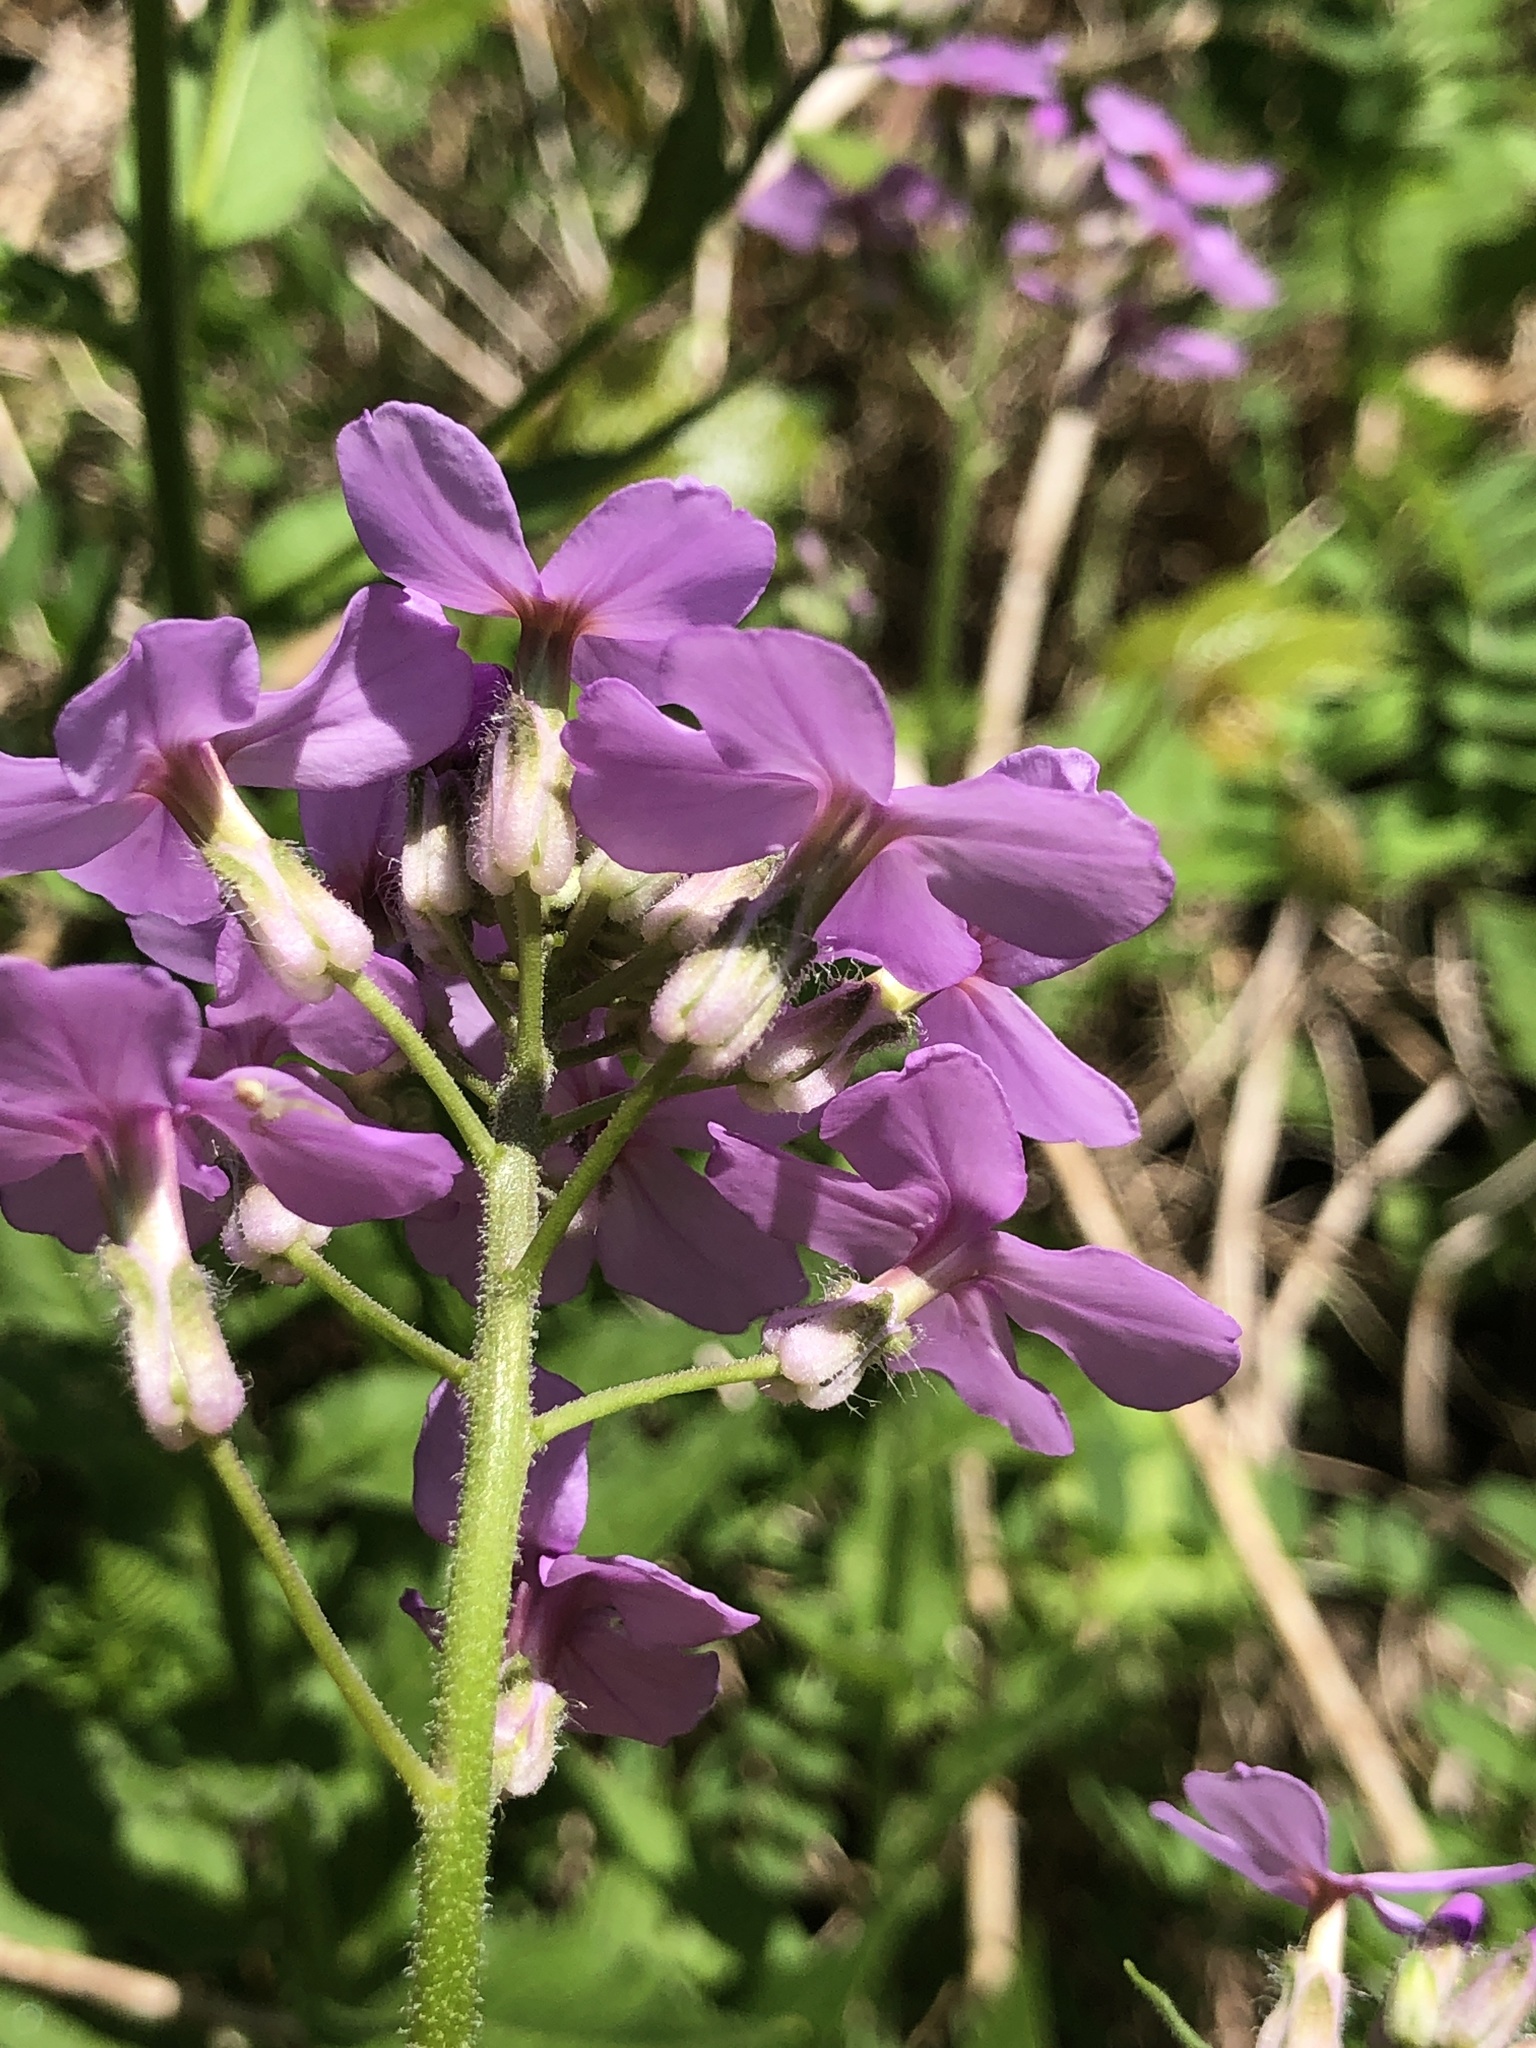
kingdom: Plantae
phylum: Tracheophyta
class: Magnoliopsida
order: Brassicales
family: Brassicaceae
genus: Hesperis
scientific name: Hesperis matronalis
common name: Dame's-violet
